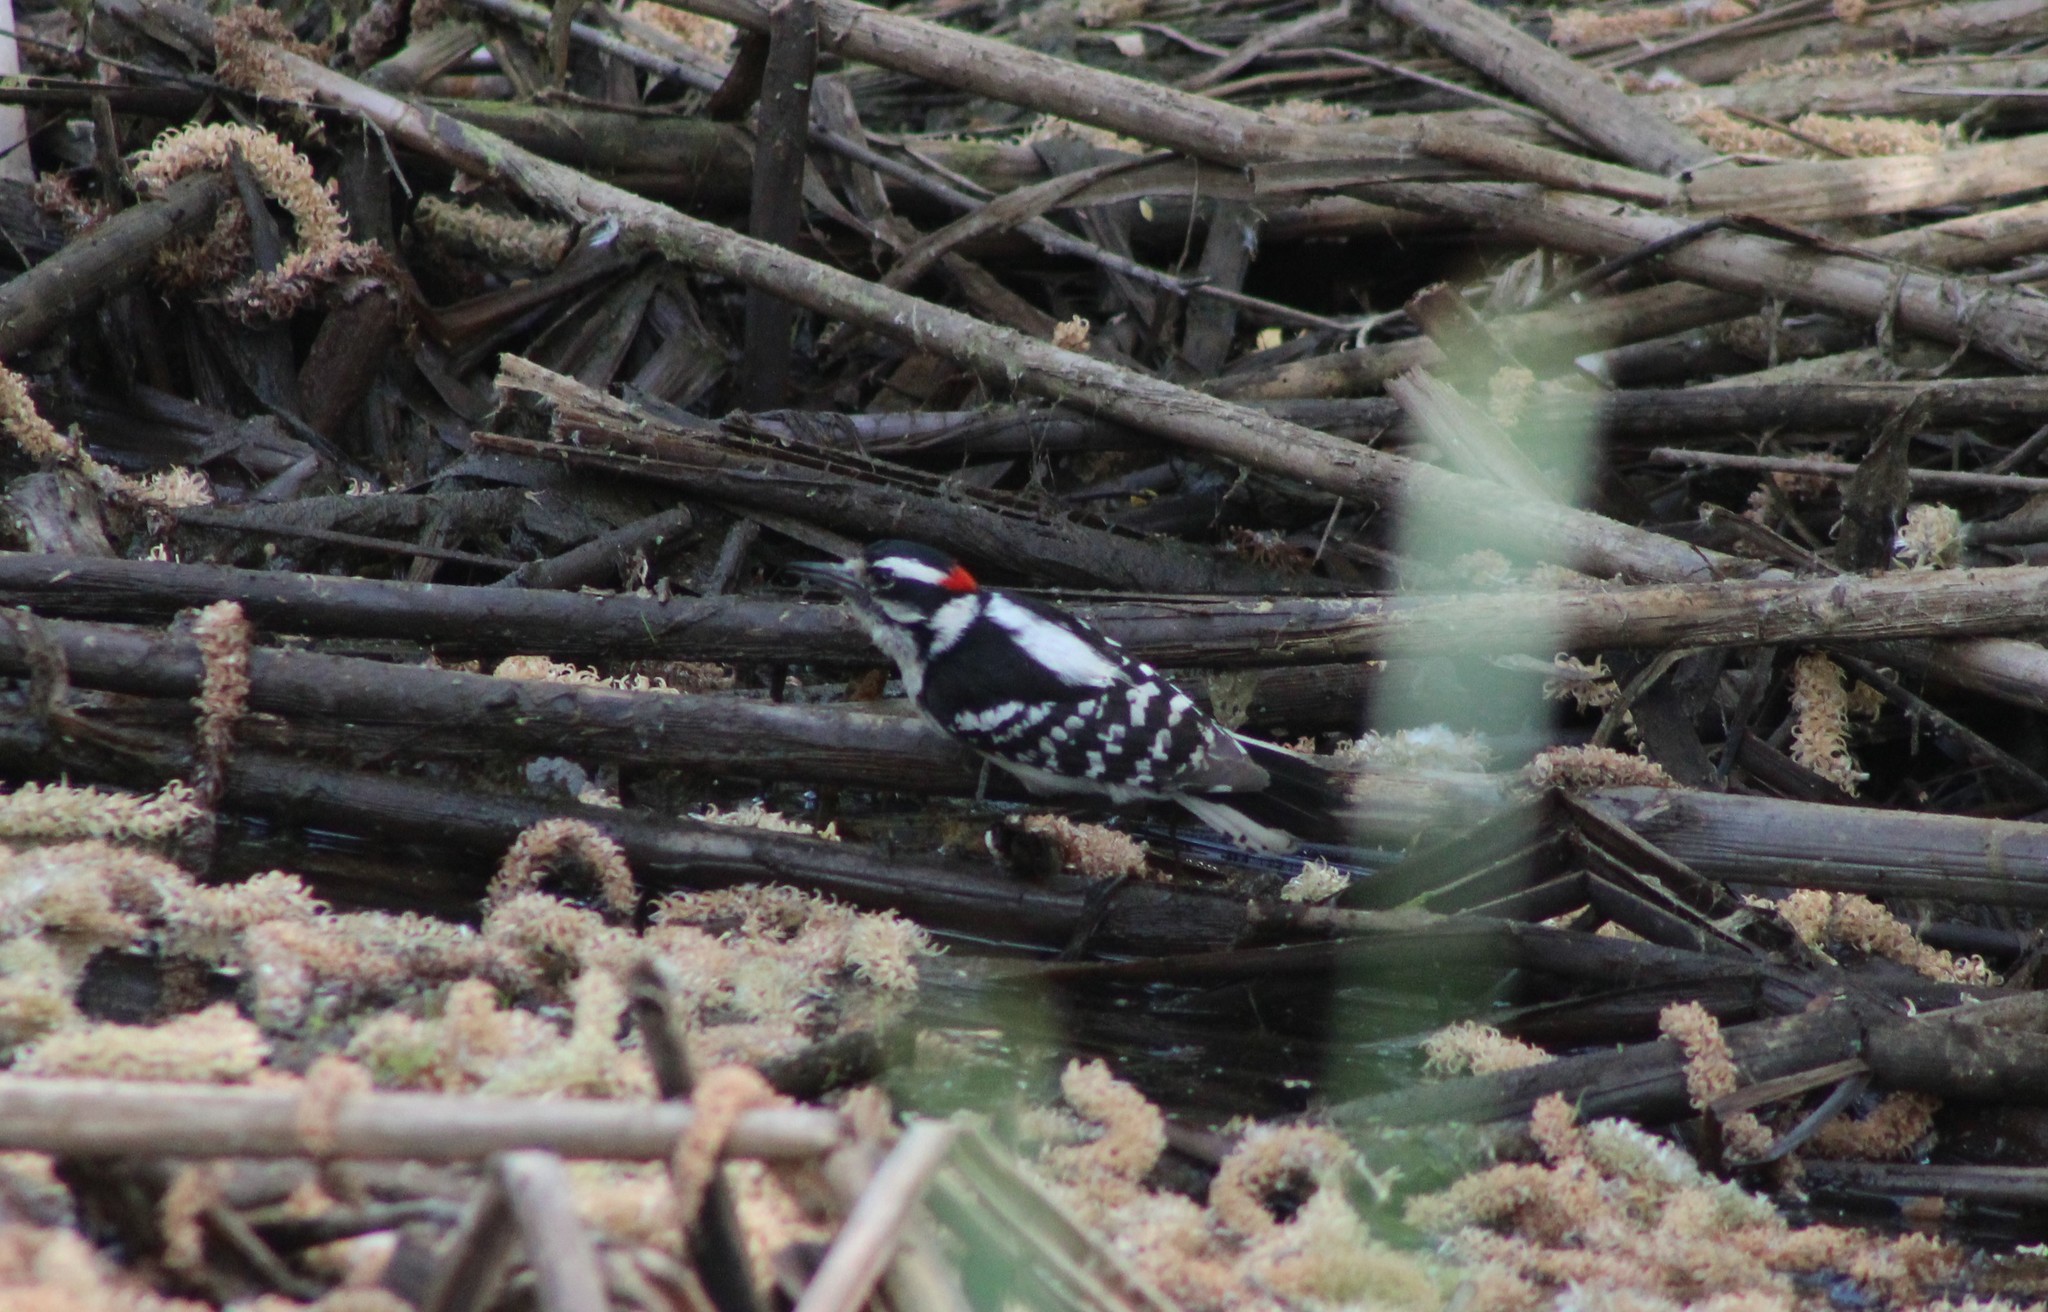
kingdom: Animalia
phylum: Chordata
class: Aves
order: Piciformes
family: Picidae
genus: Dryobates
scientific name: Dryobates pubescens
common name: Downy woodpecker
